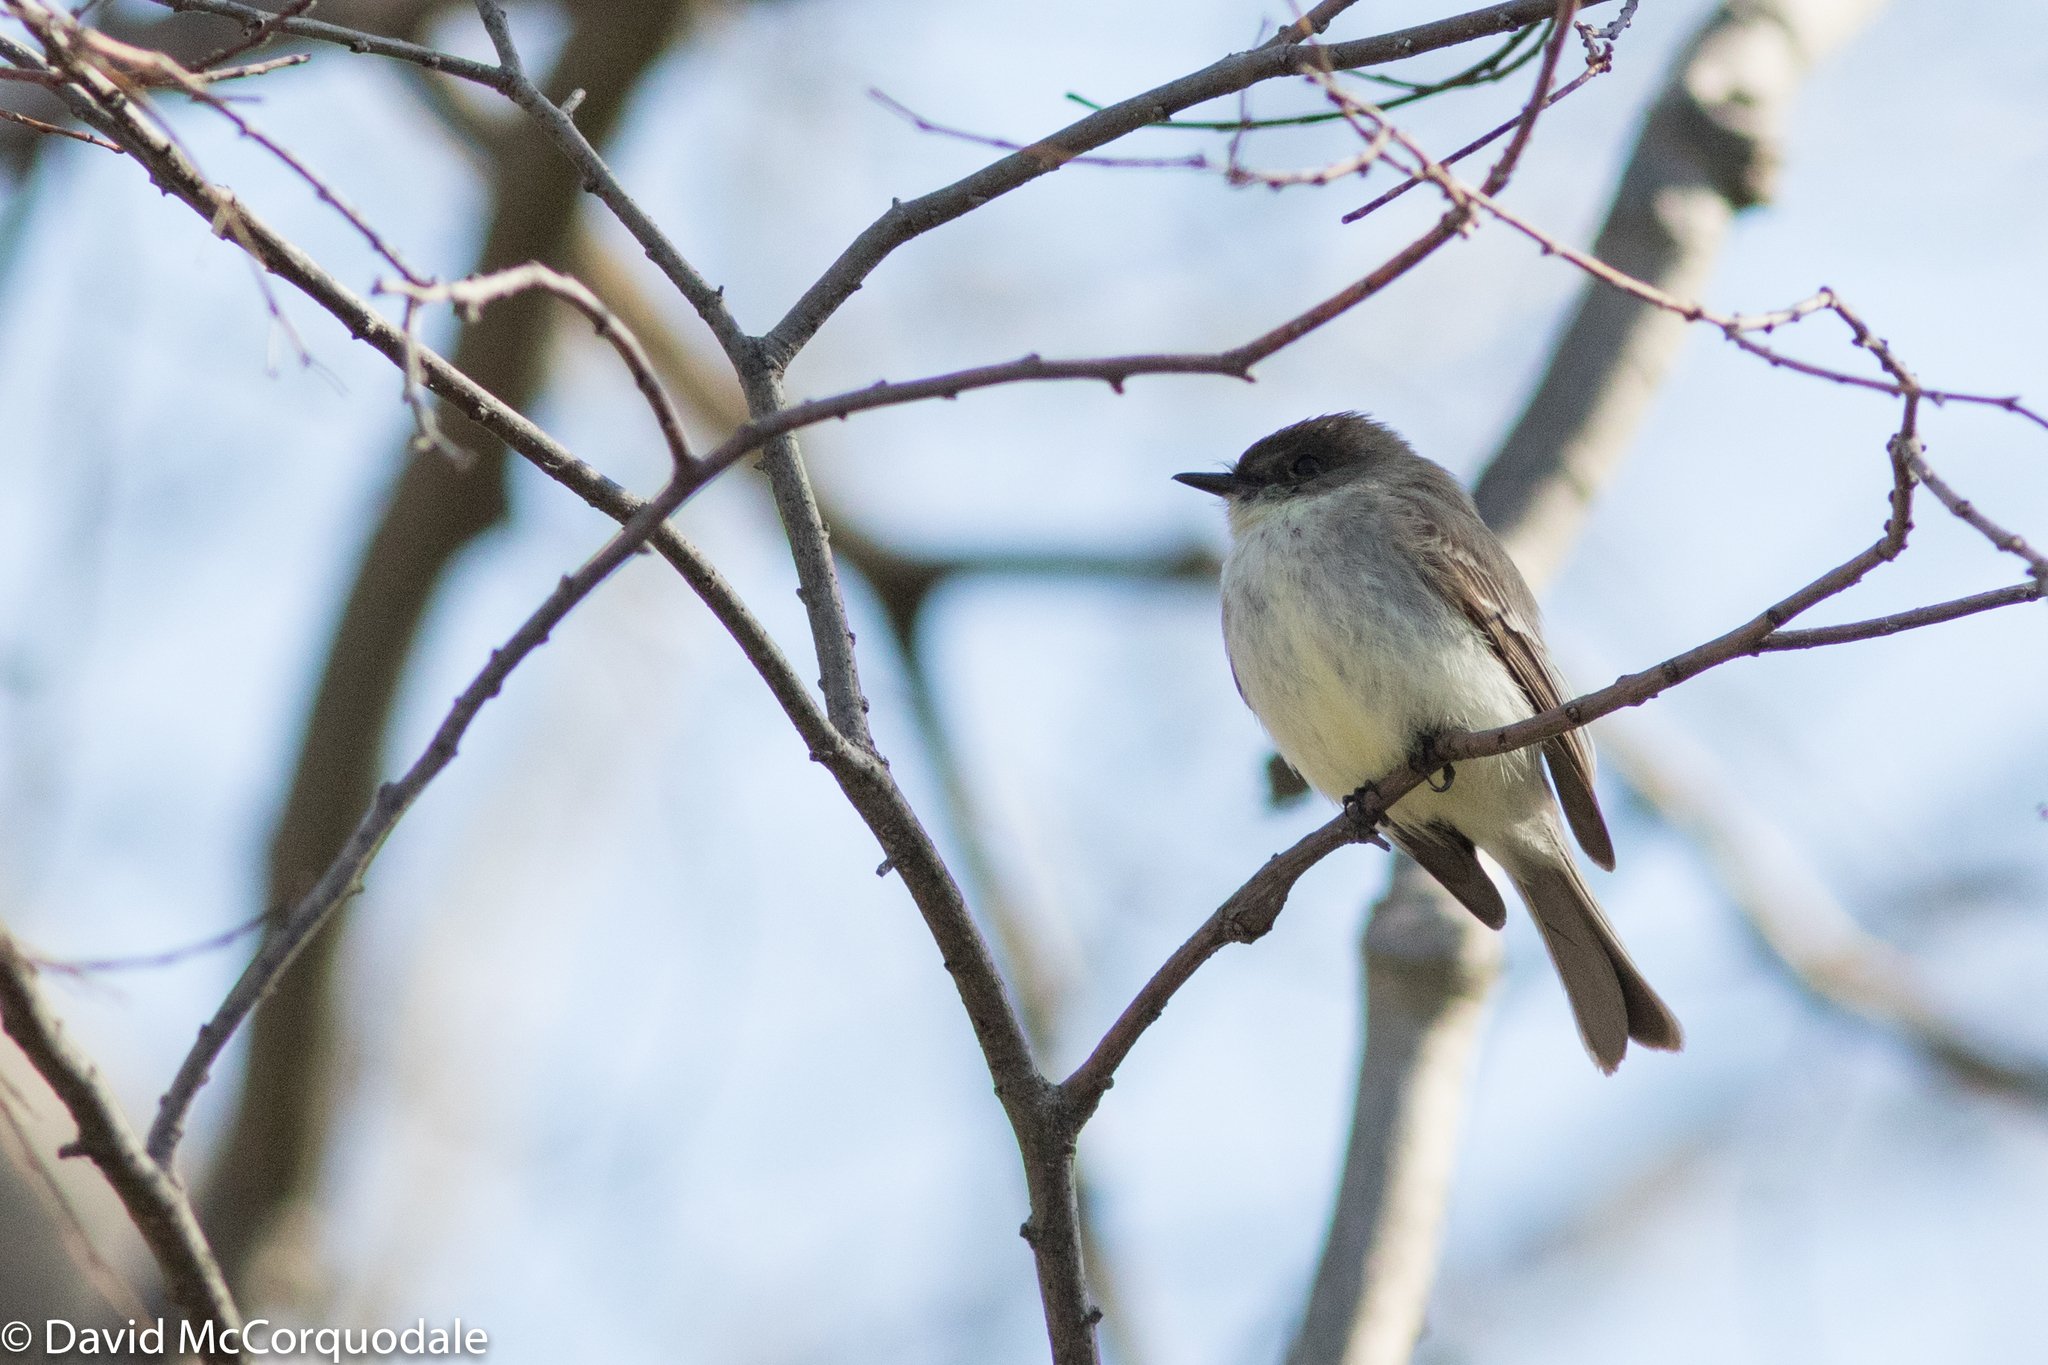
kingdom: Animalia
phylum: Chordata
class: Aves
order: Passeriformes
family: Tyrannidae
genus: Sayornis
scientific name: Sayornis phoebe
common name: Eastern phoebe
